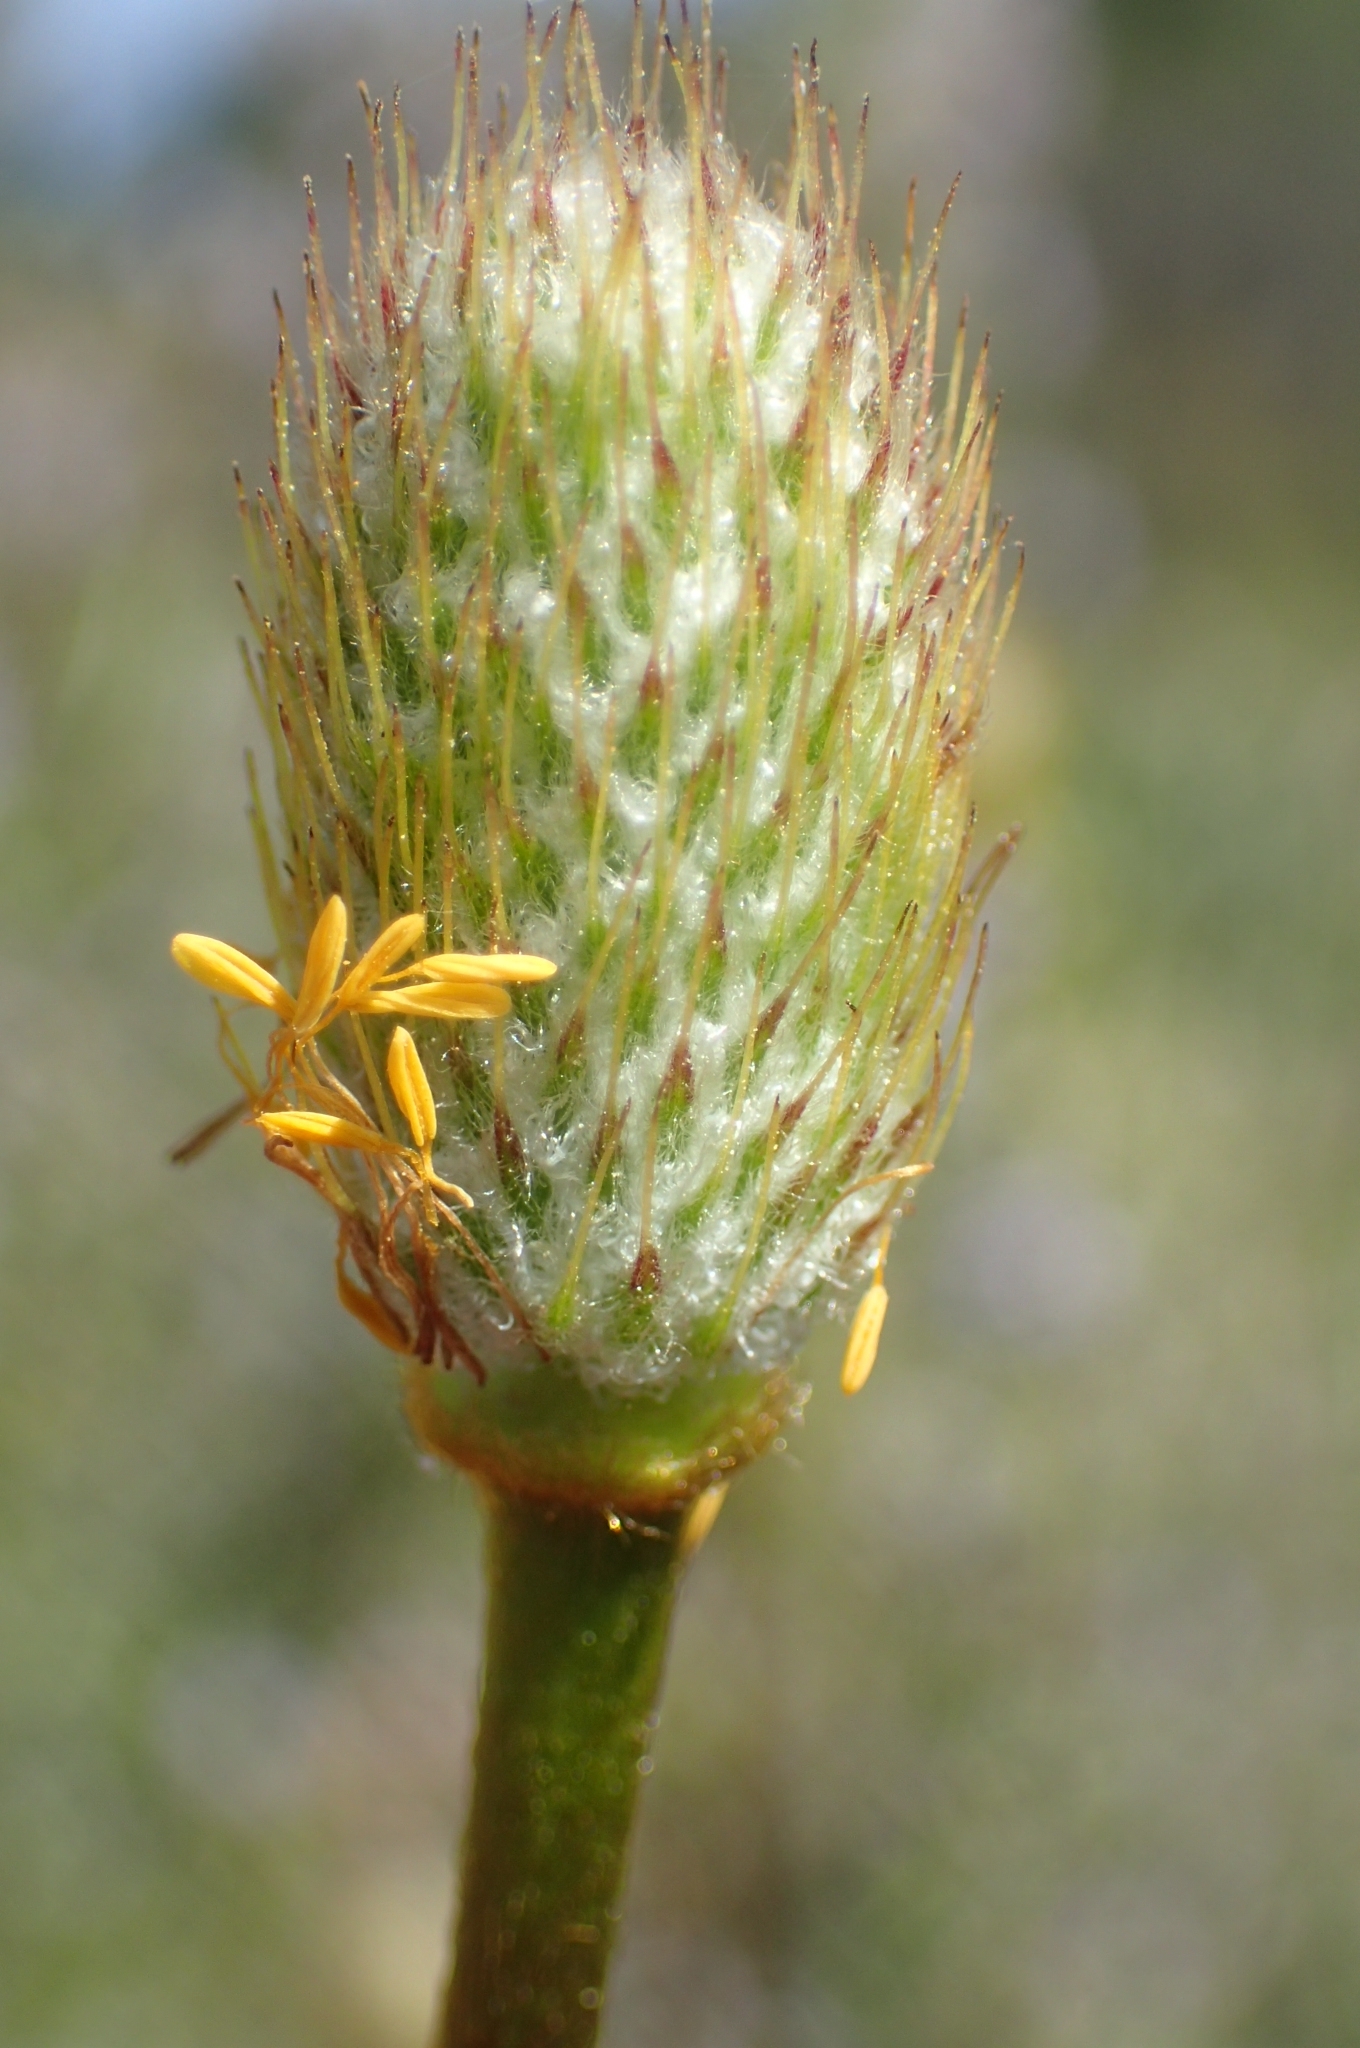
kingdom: Plantae
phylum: Tracheophyta
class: Magnoliopsida
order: Ranunculales
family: Ranunculaceae
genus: Anemone
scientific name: Anemone palmata
